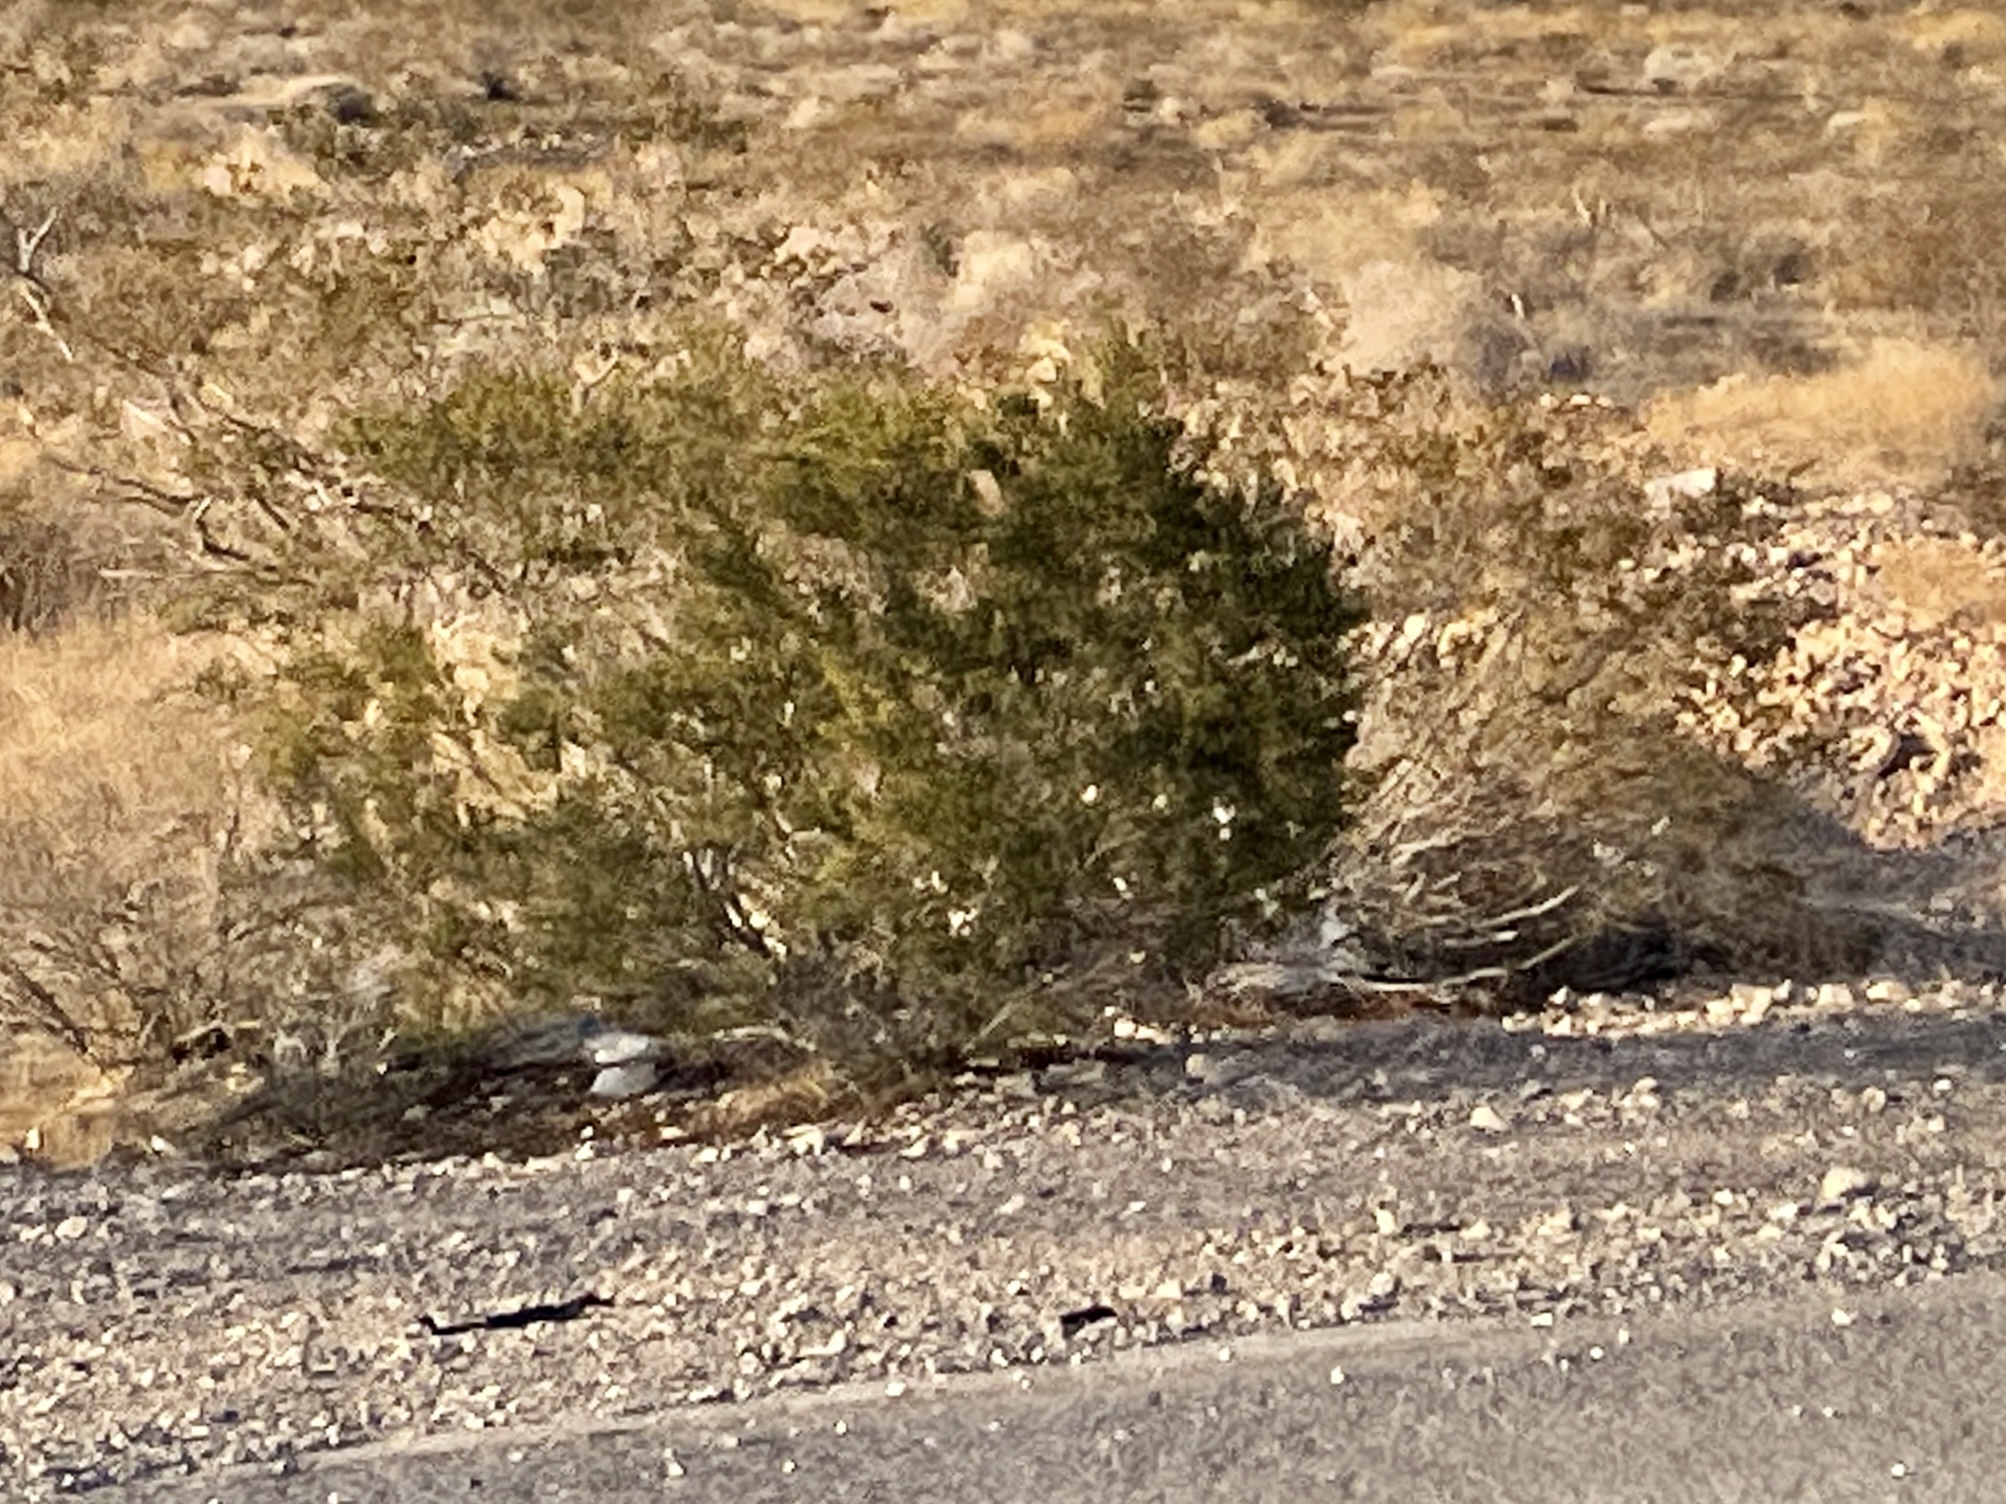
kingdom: Plantae
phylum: Tracheophyta
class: Magnoliopsida
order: Zygophyllales
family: Zygophyllaceae
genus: Larrea
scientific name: Larrea tridentata
